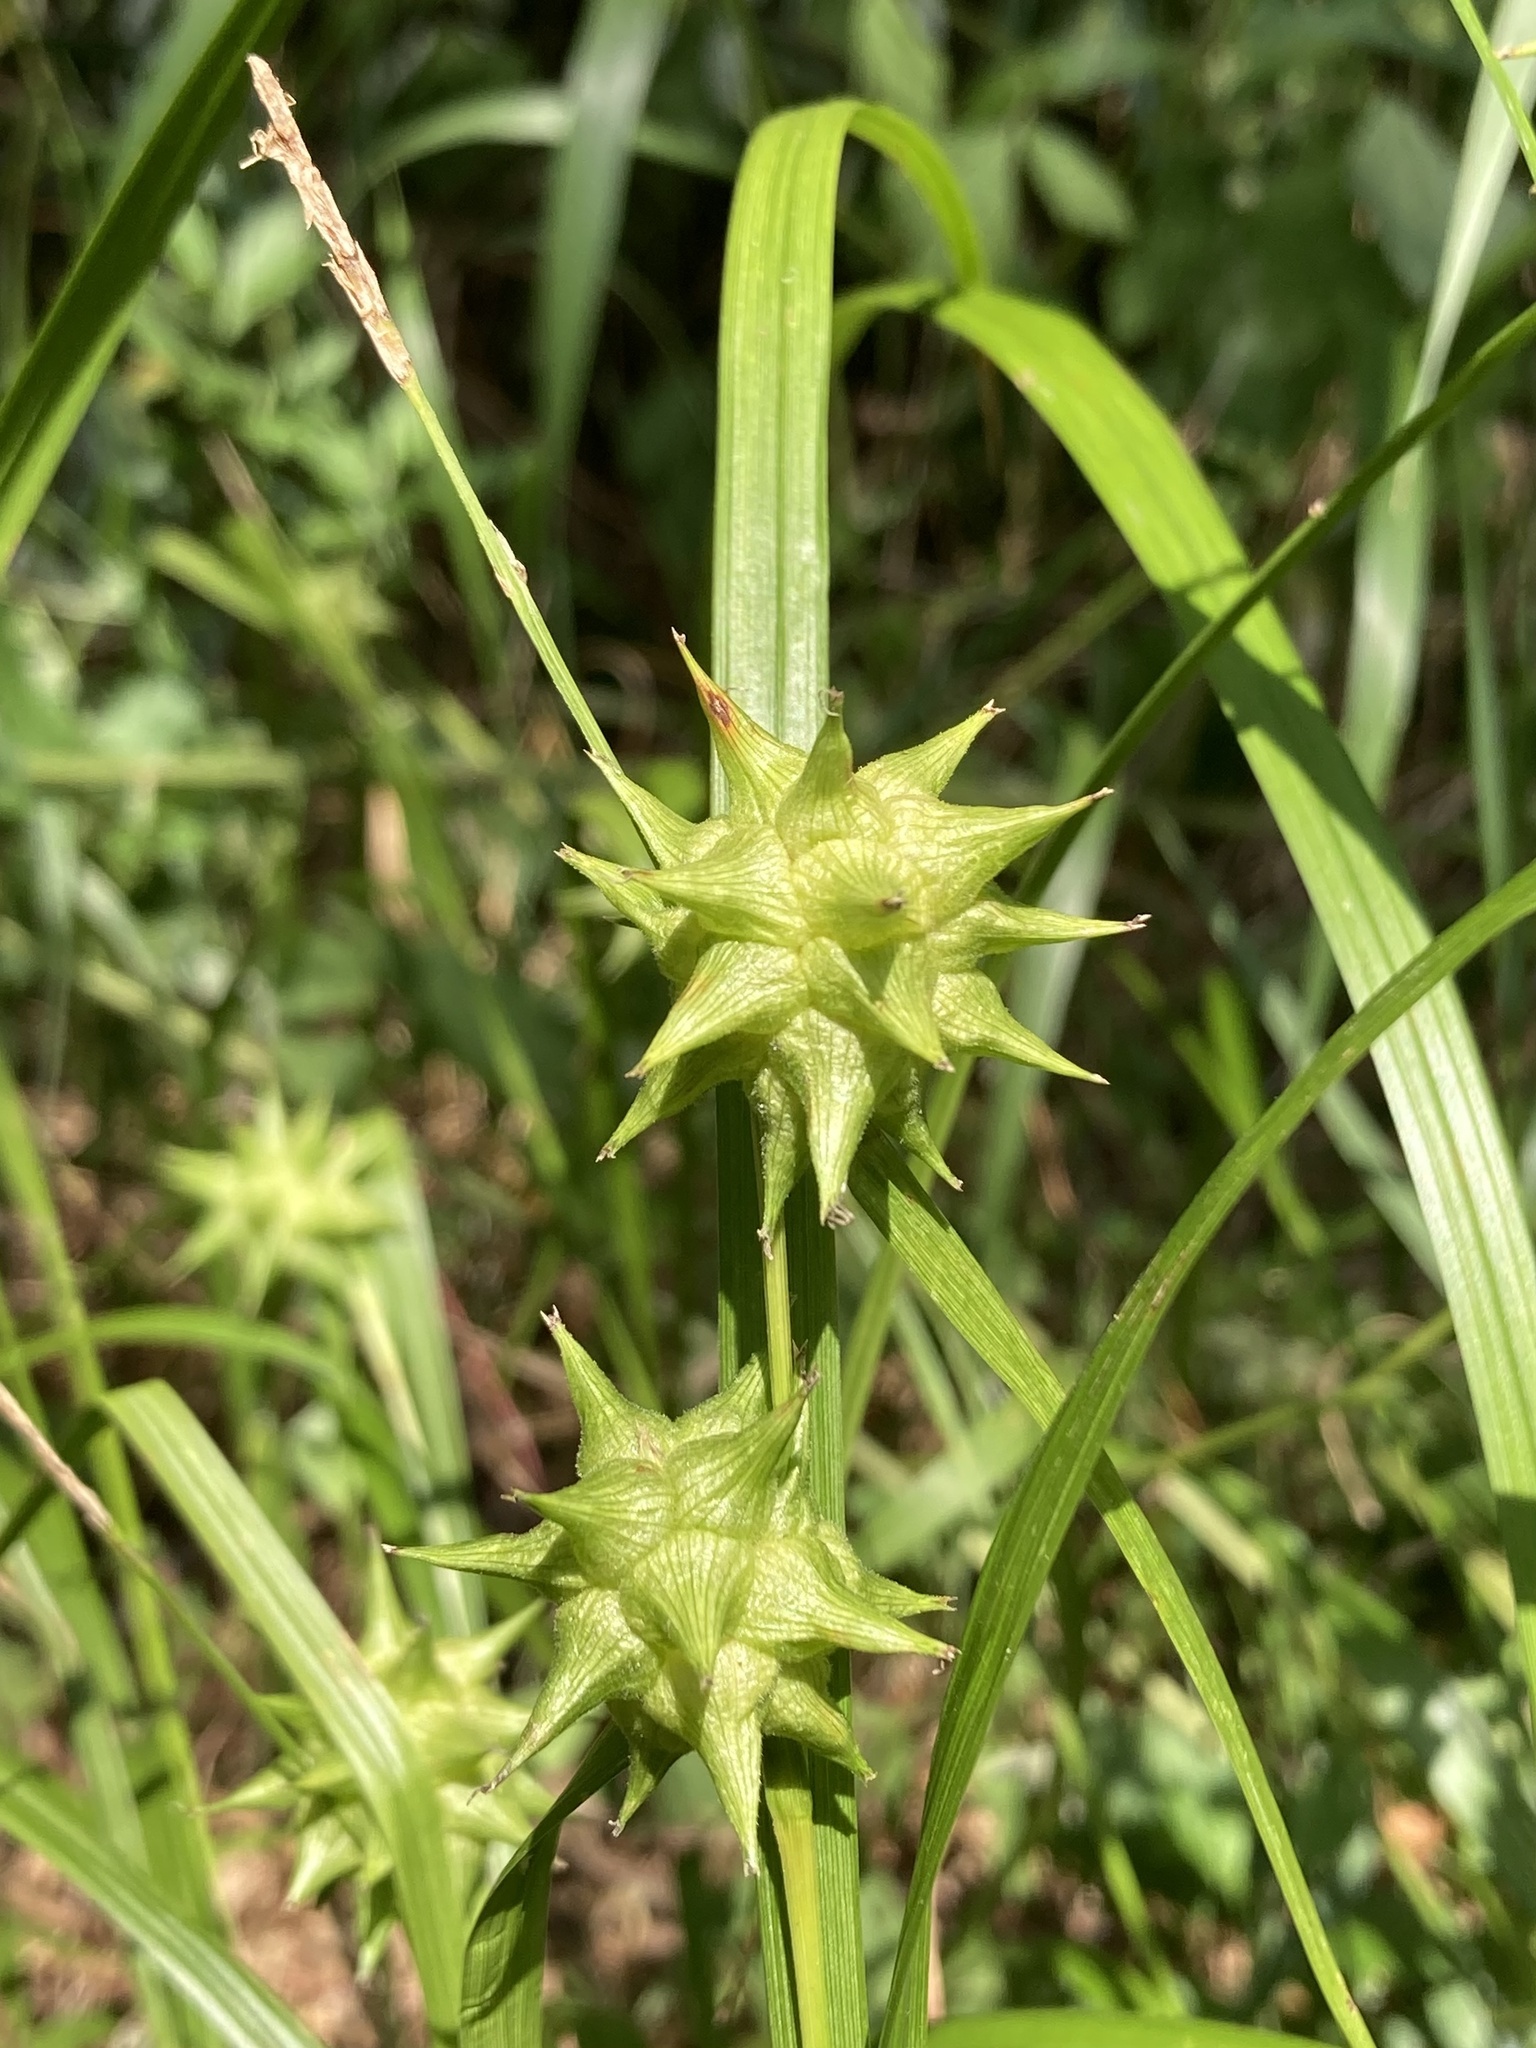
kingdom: Plantae
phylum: Tracheophyta
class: Liliopsida
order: Poales
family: Cyperaceae
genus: Carex
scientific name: Carex grayi
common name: Asa gray's sedge
